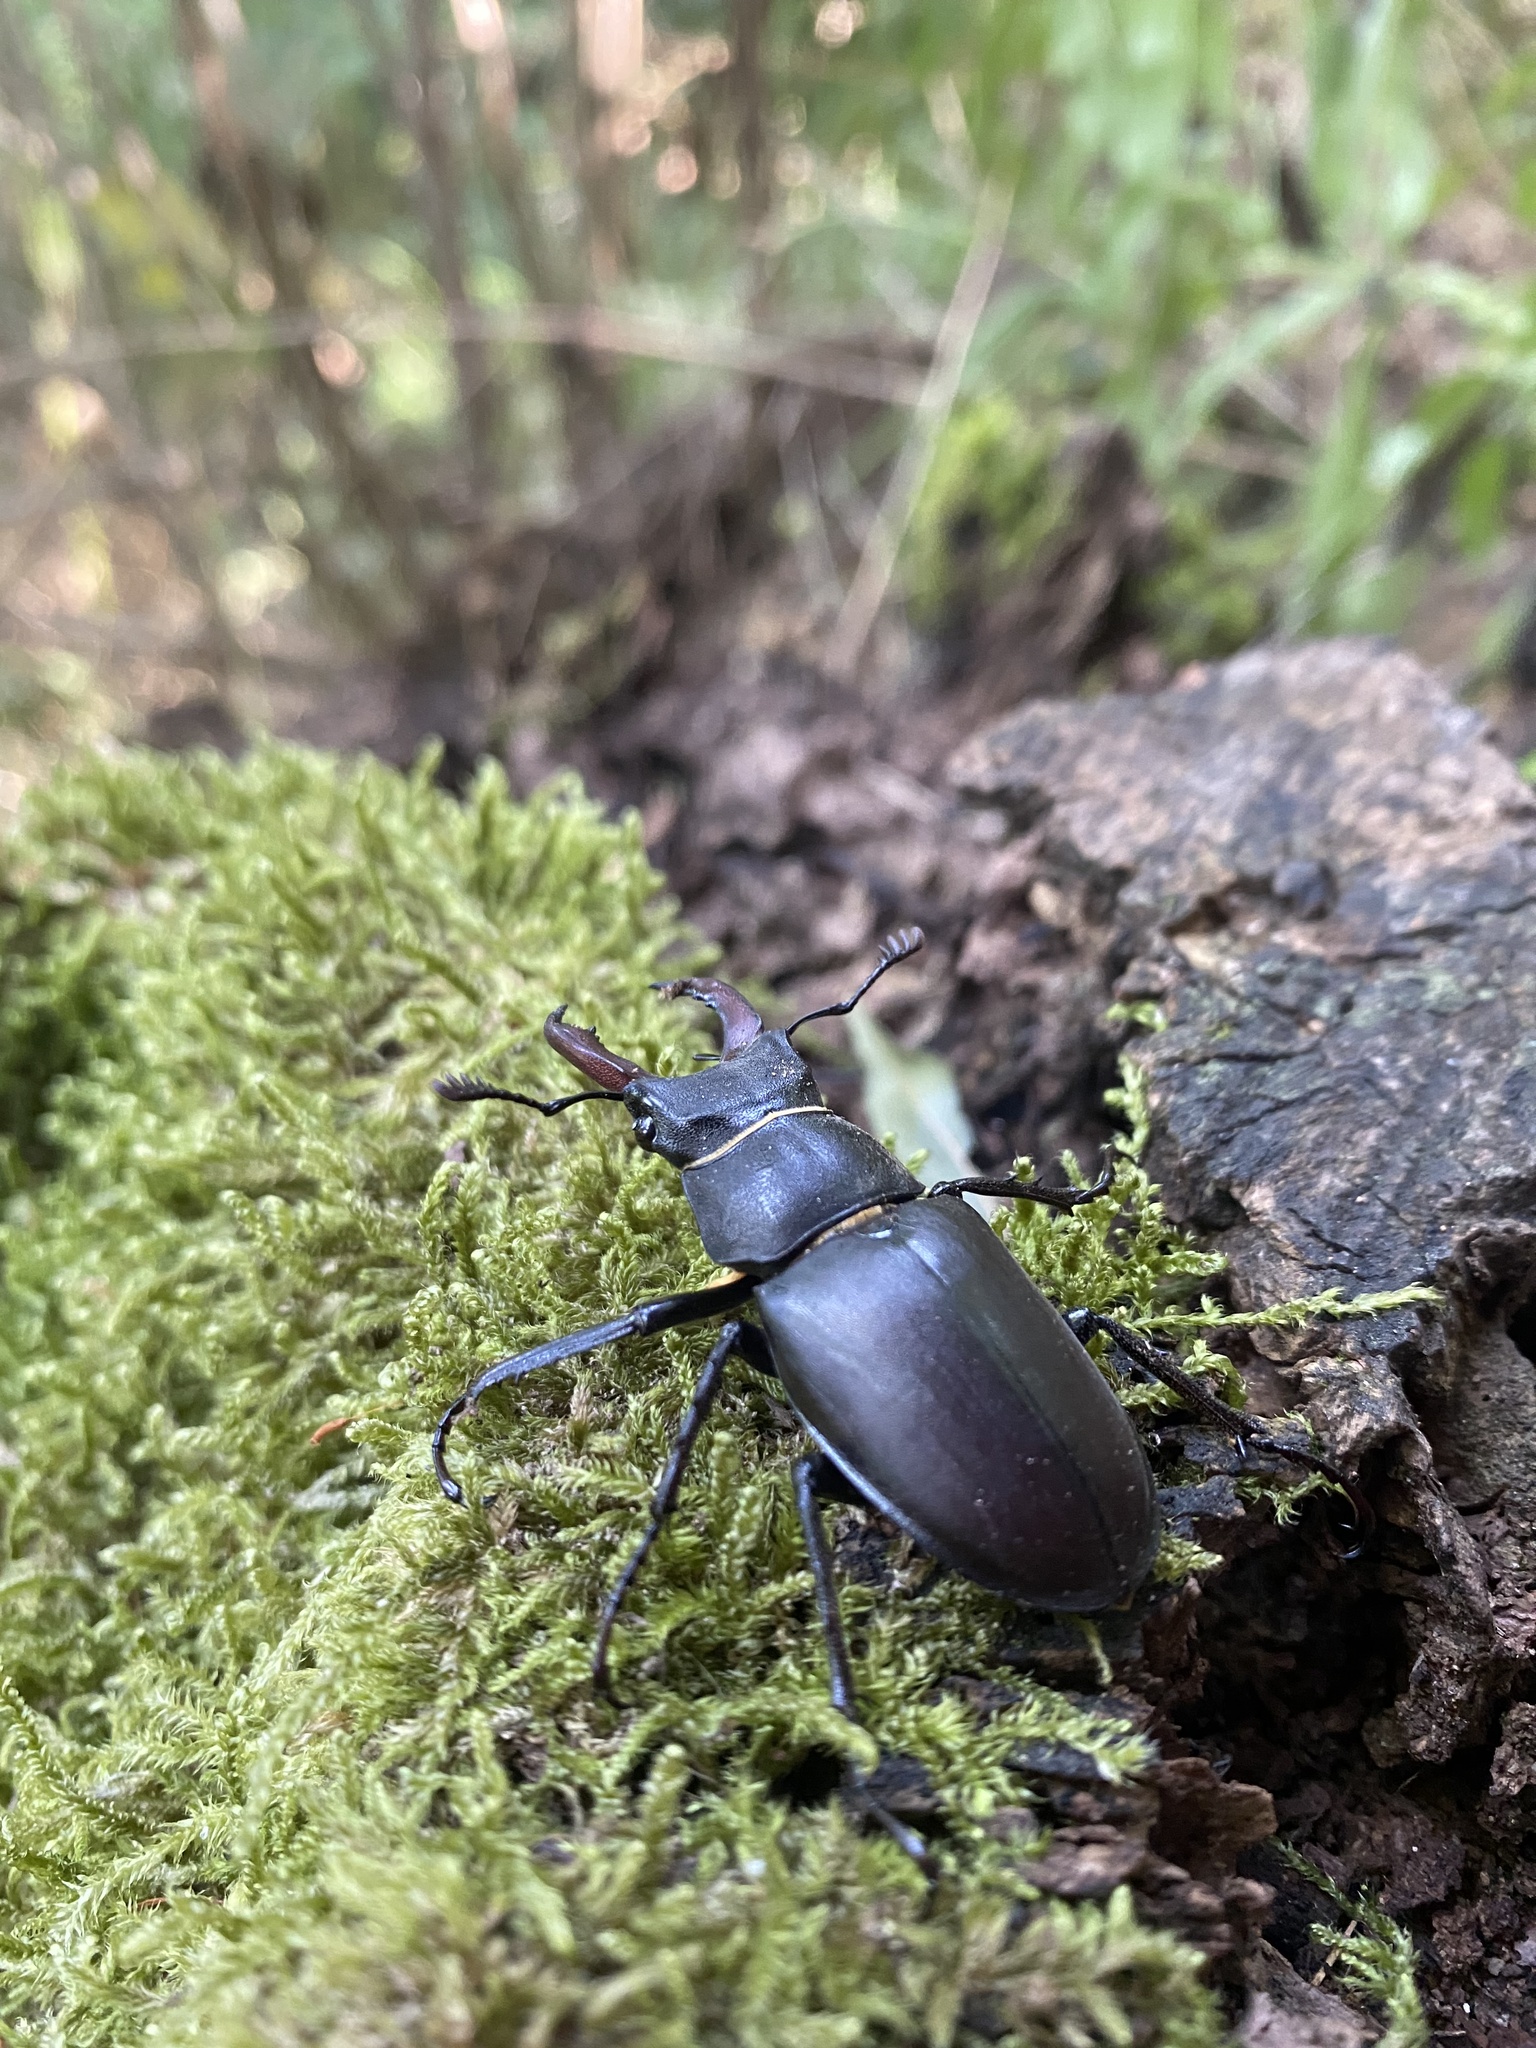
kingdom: Animalia
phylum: Arthropoda
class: Insecta
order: Coleoptera
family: Lucanidae
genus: Lucanus
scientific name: Lucanus cervus
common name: Stag beetle
